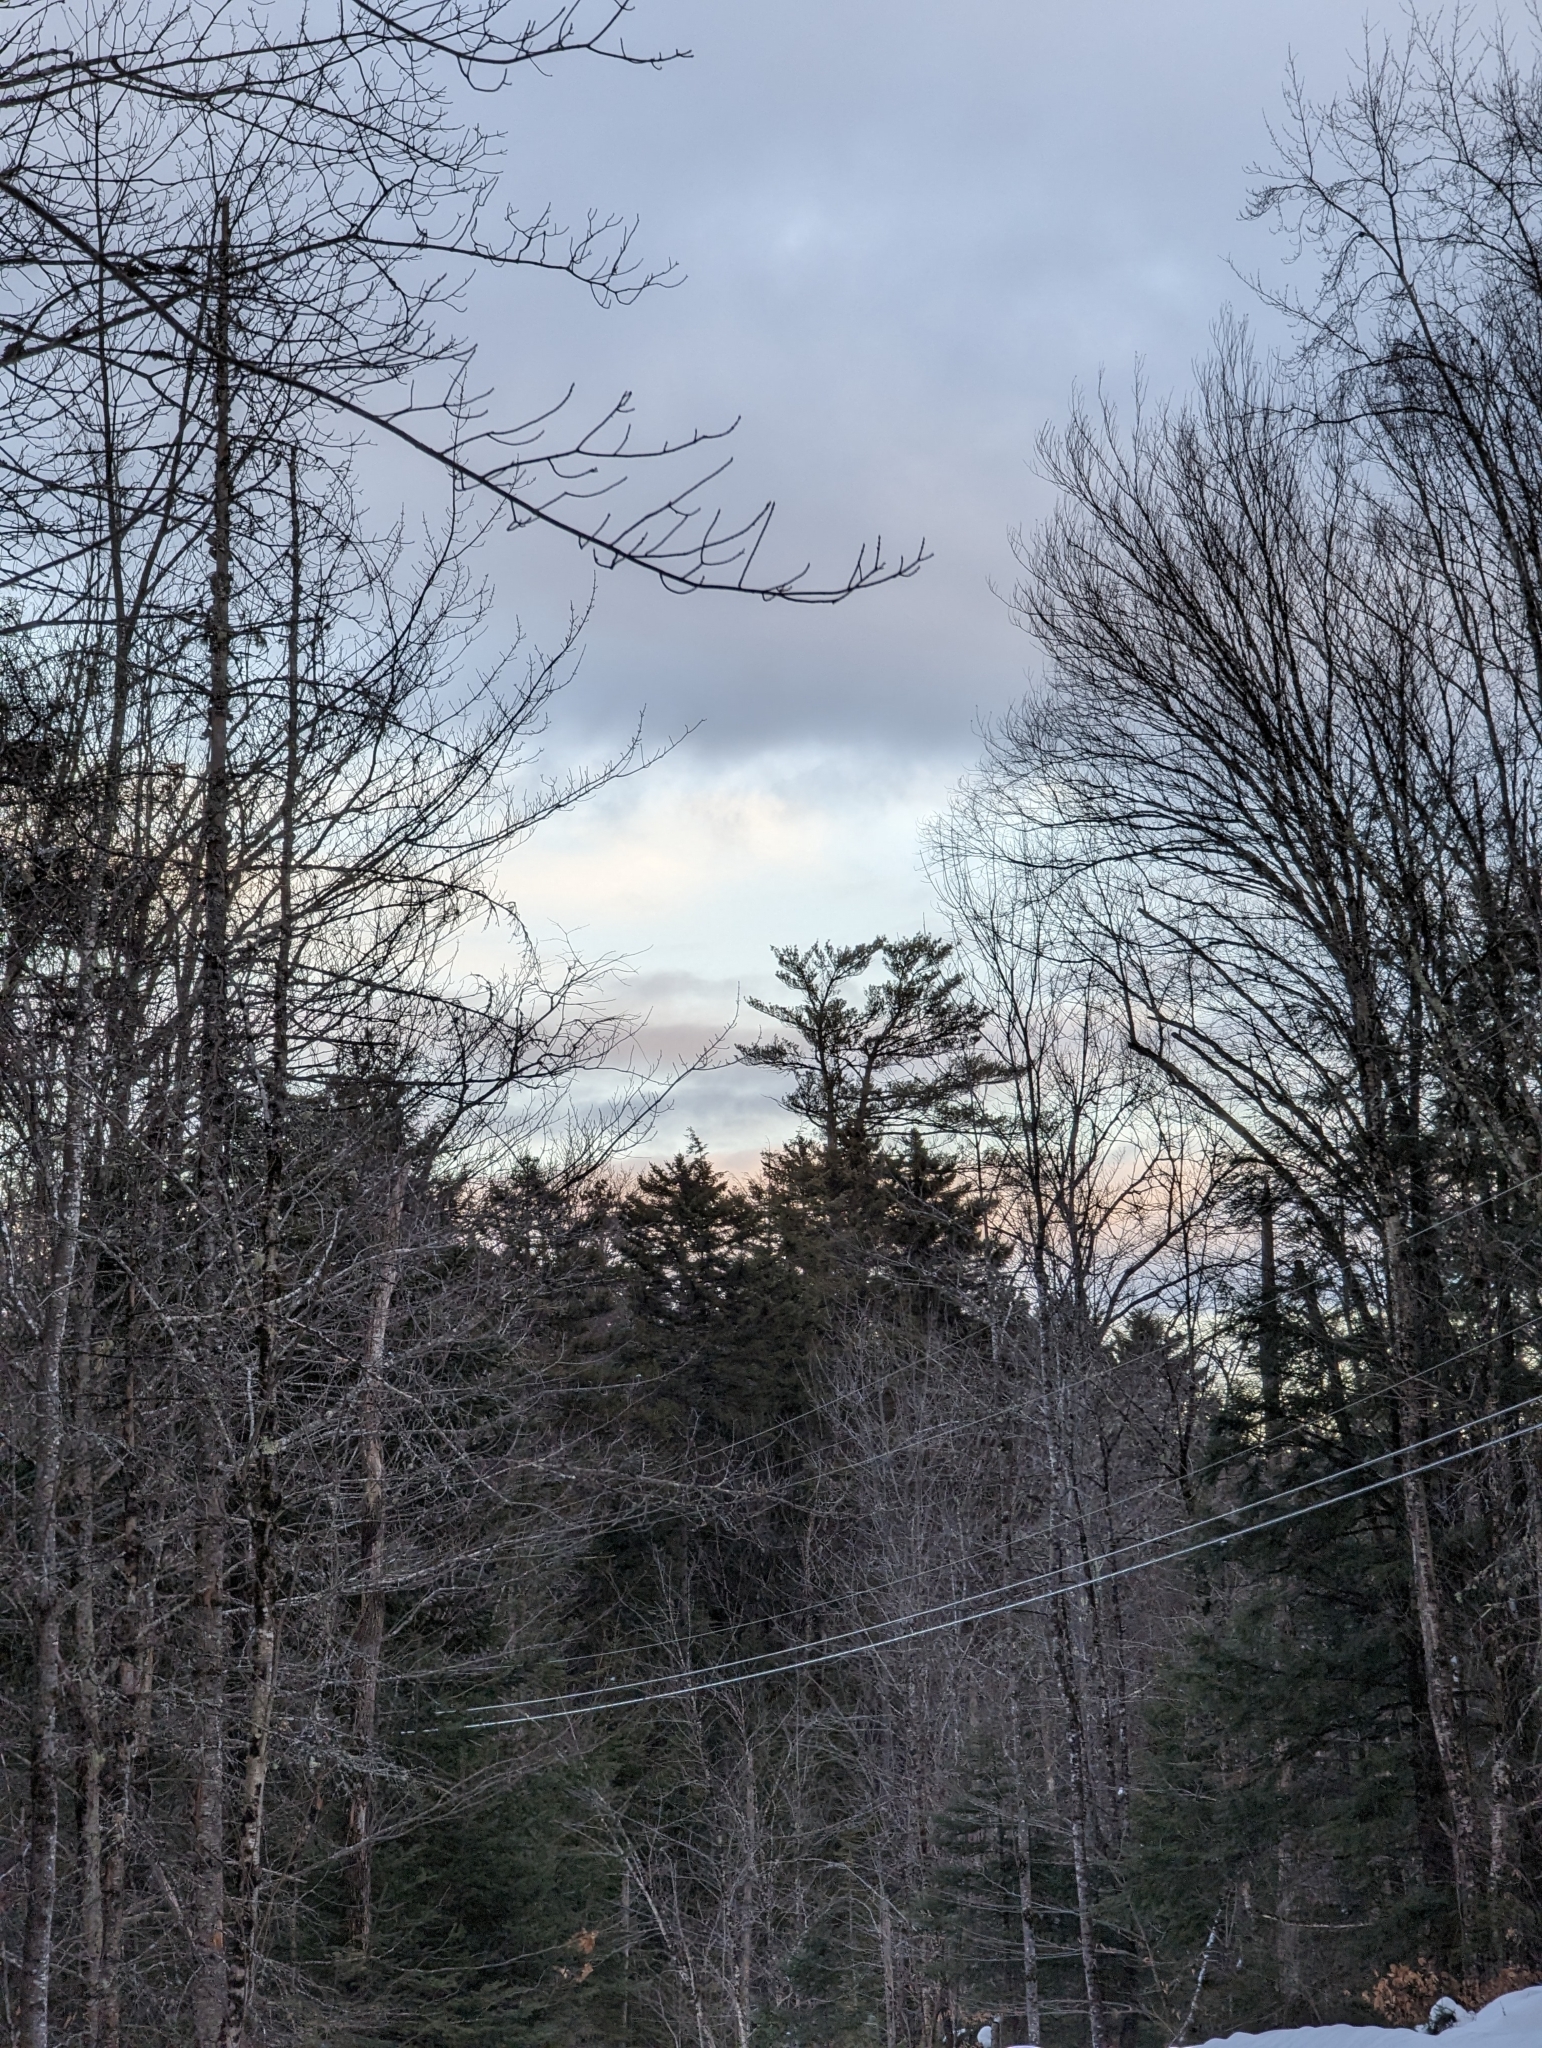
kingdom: Plantae
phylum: Tracheophyta
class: Pinopsida
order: Pinales
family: Pinaceae
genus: Pinus
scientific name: Pinus strobus
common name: Weymouth pine
